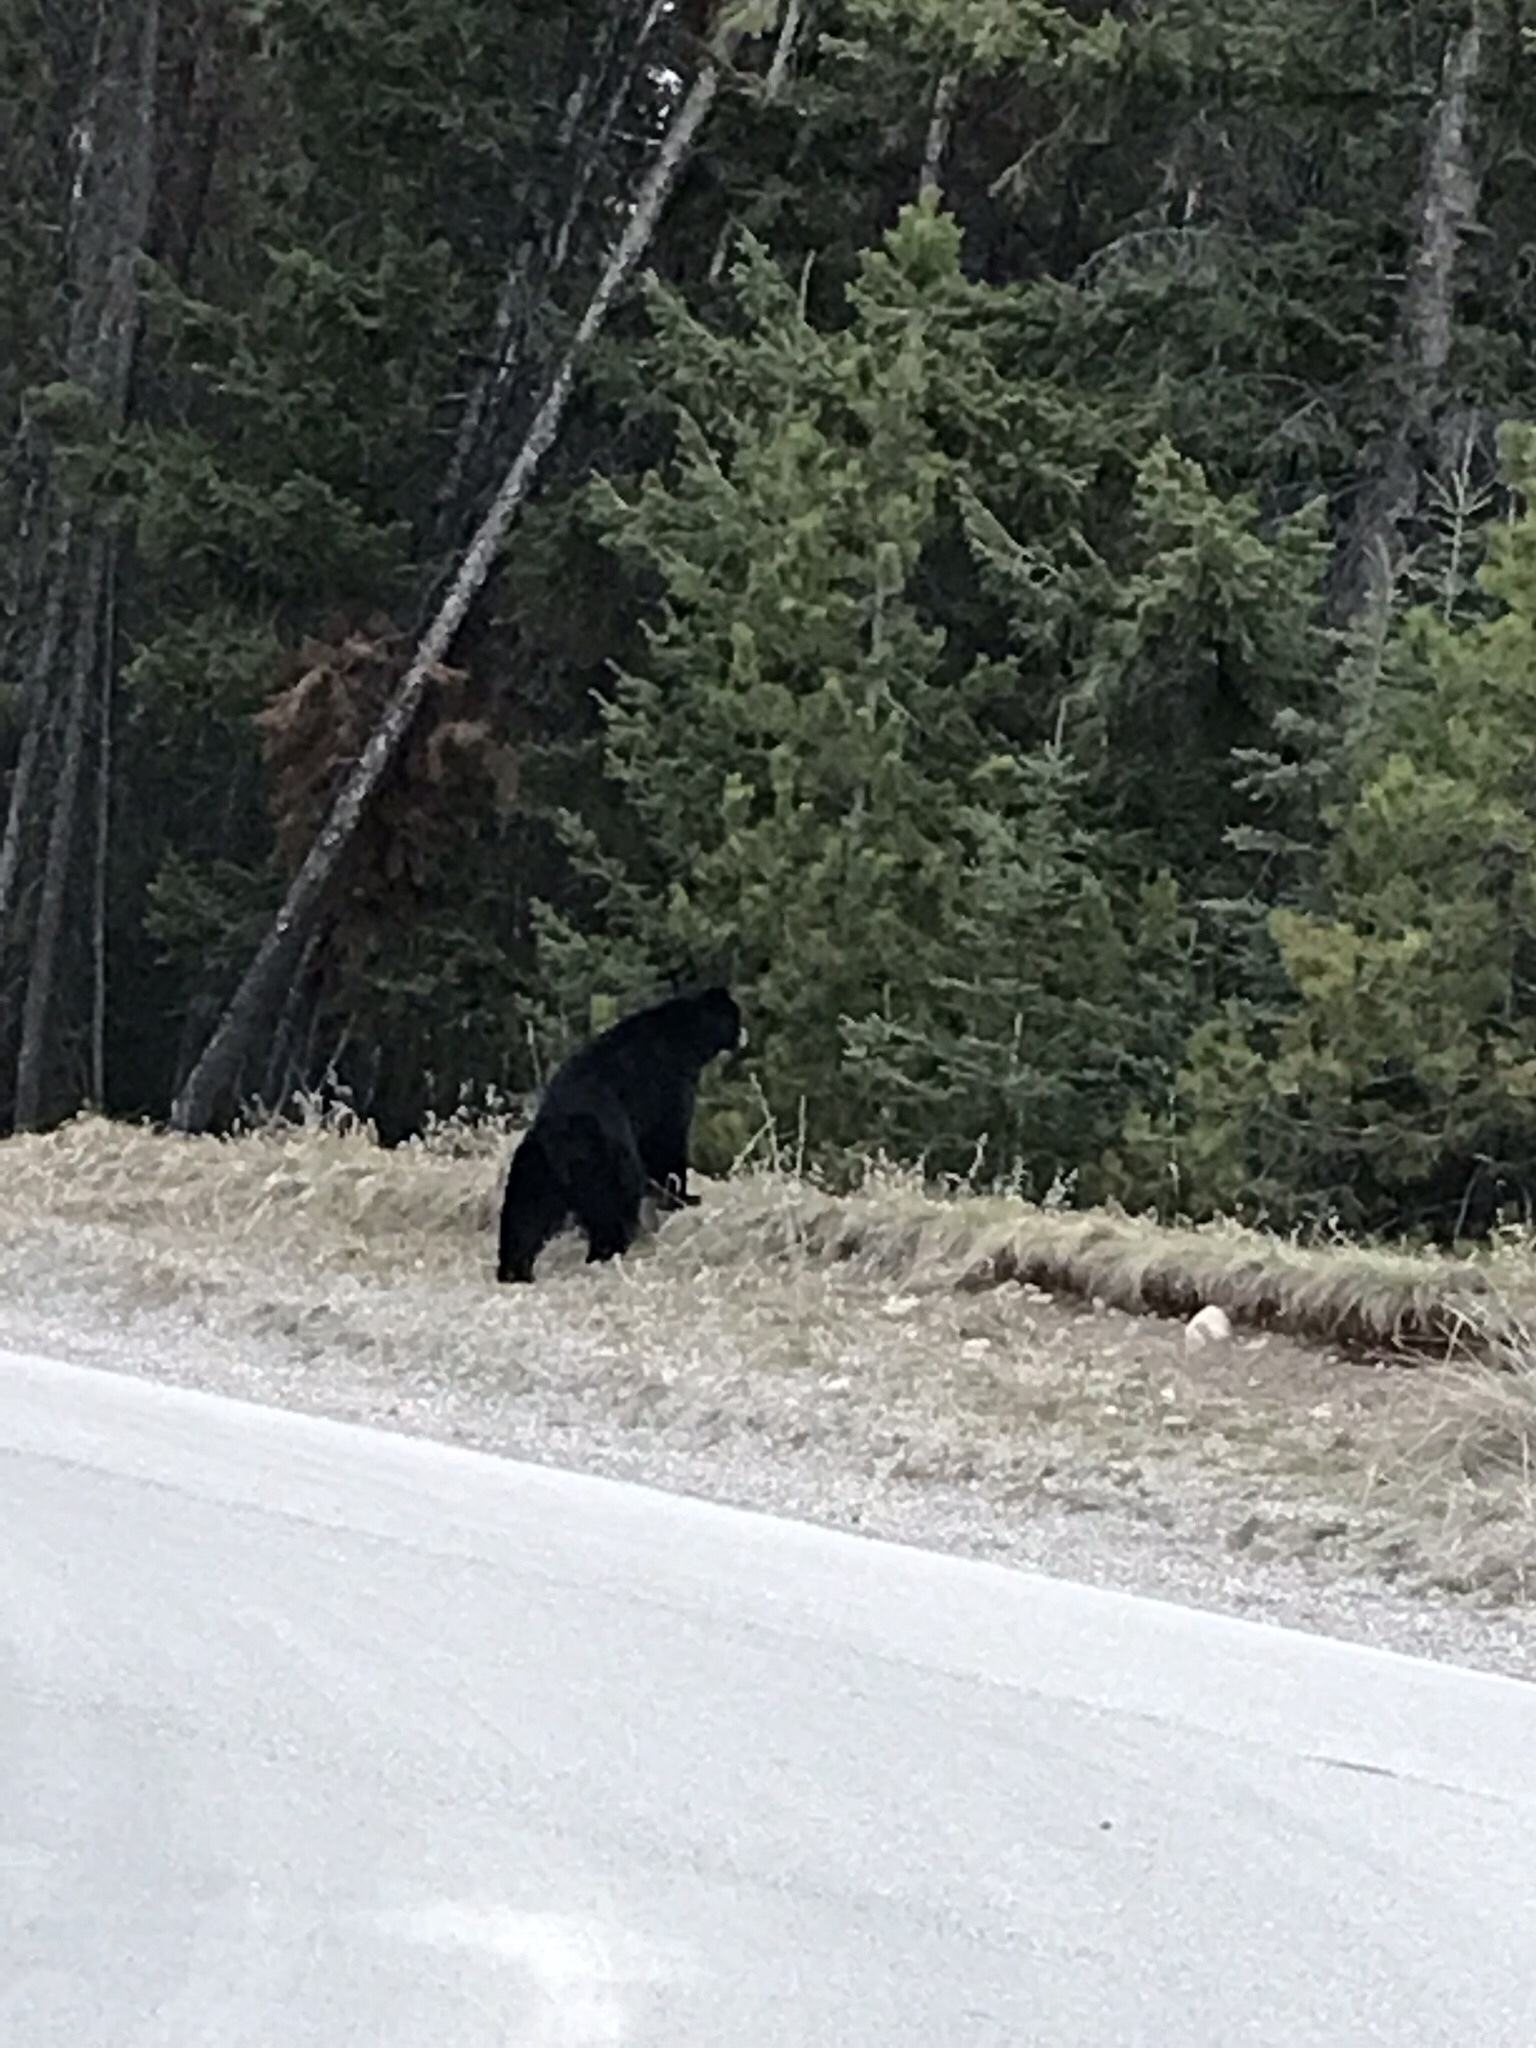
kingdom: Animalia
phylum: Chordata
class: Mammalia
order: Carnivora
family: Ursidae
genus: Ursus
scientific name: Ursus americanus
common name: American black bear
